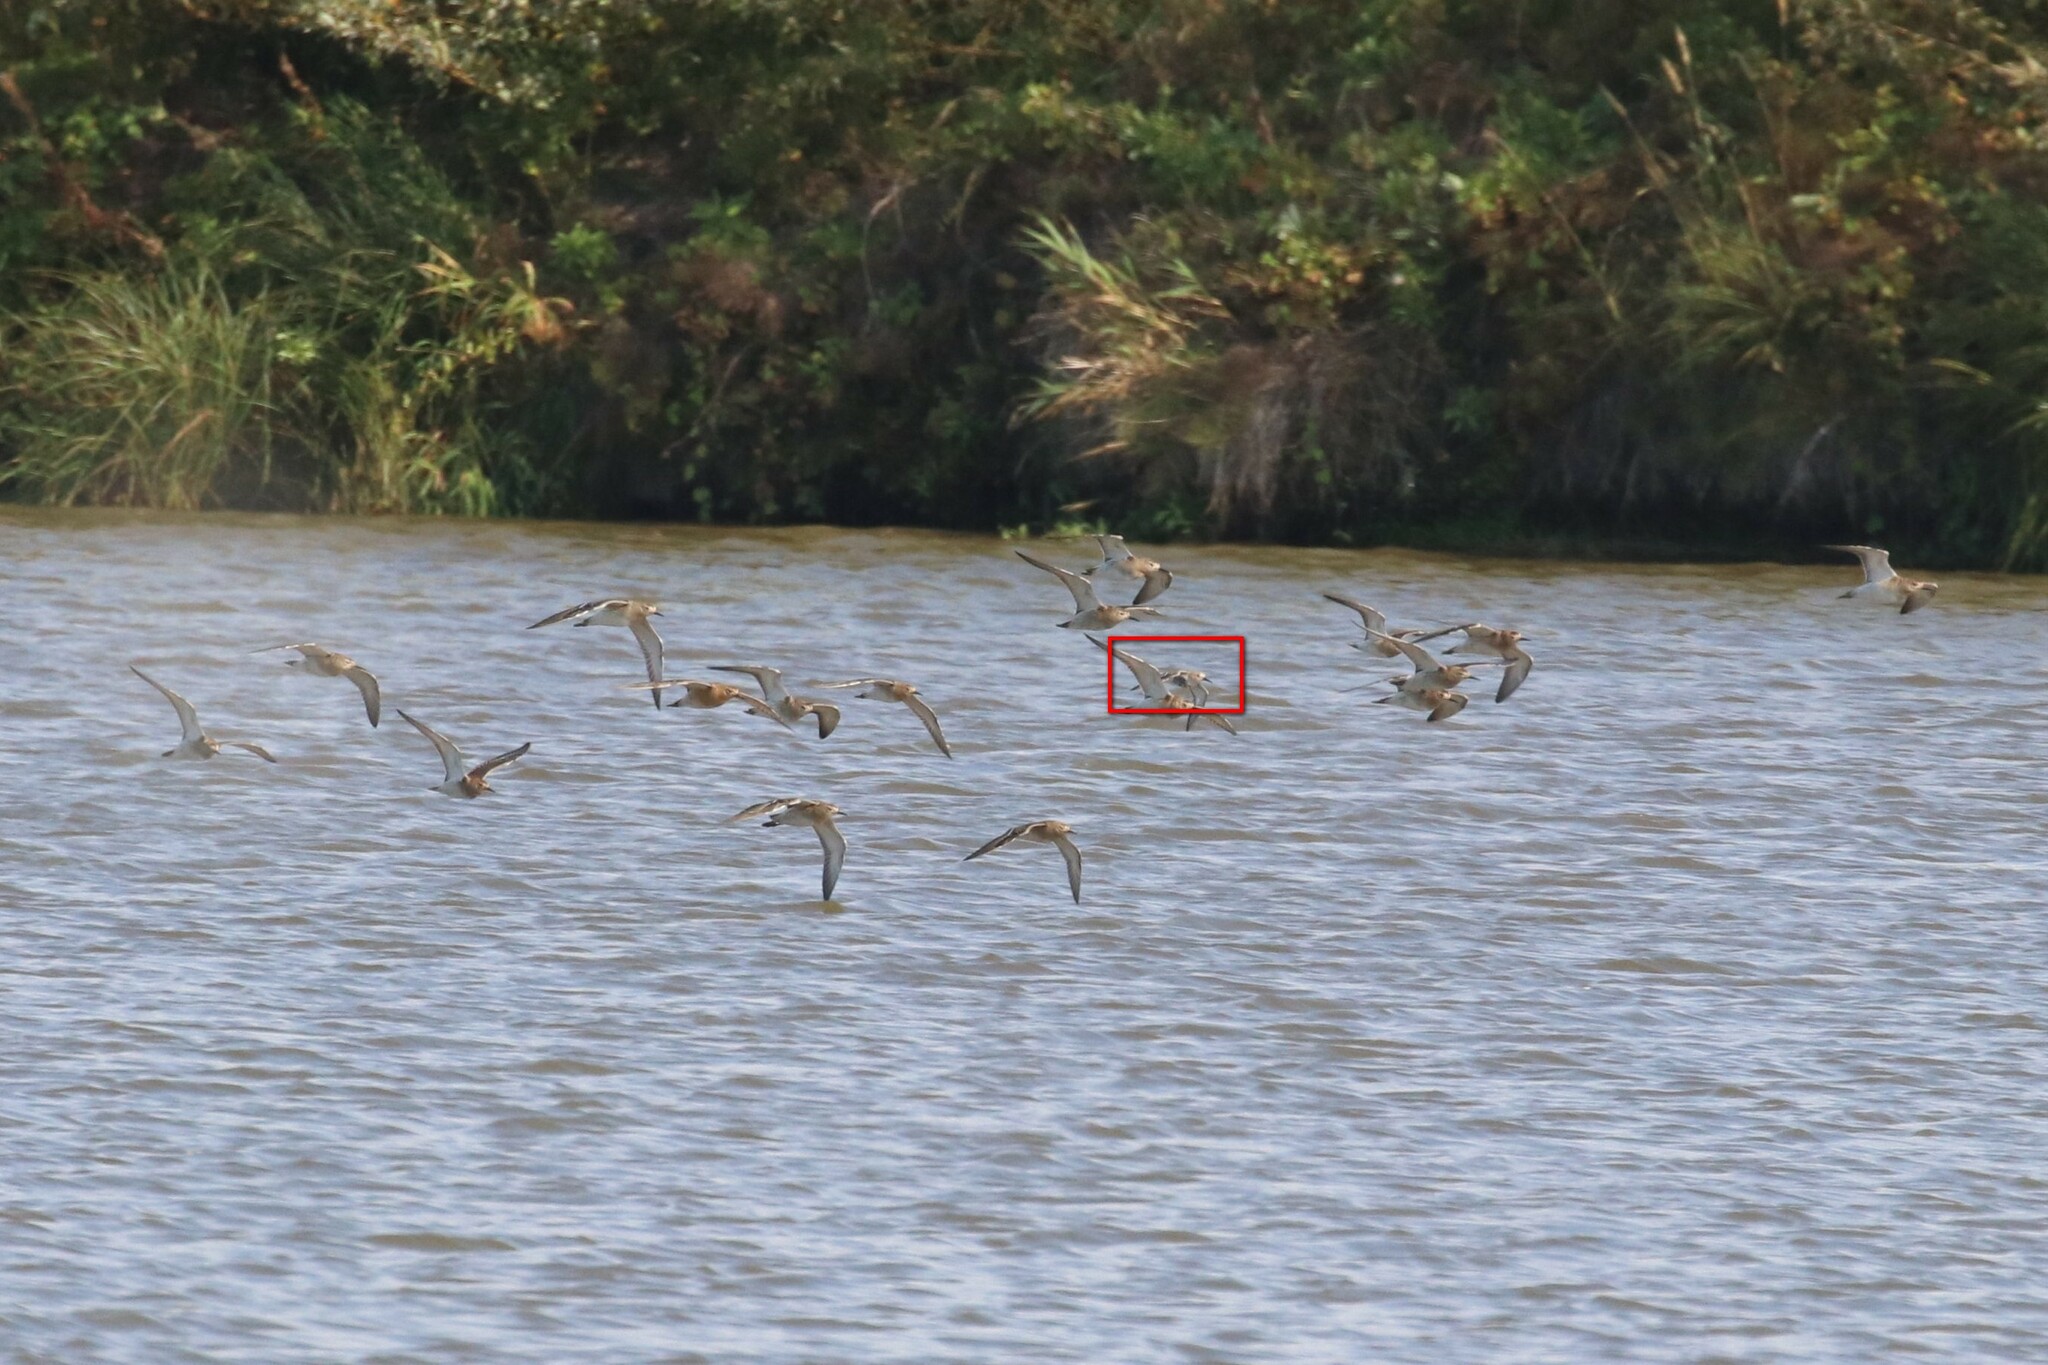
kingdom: Animalia
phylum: Chordata
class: Aves
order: Charadriiformes
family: Scolopacidae
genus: Calidris
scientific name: Calidris alpina
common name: Dunlin
